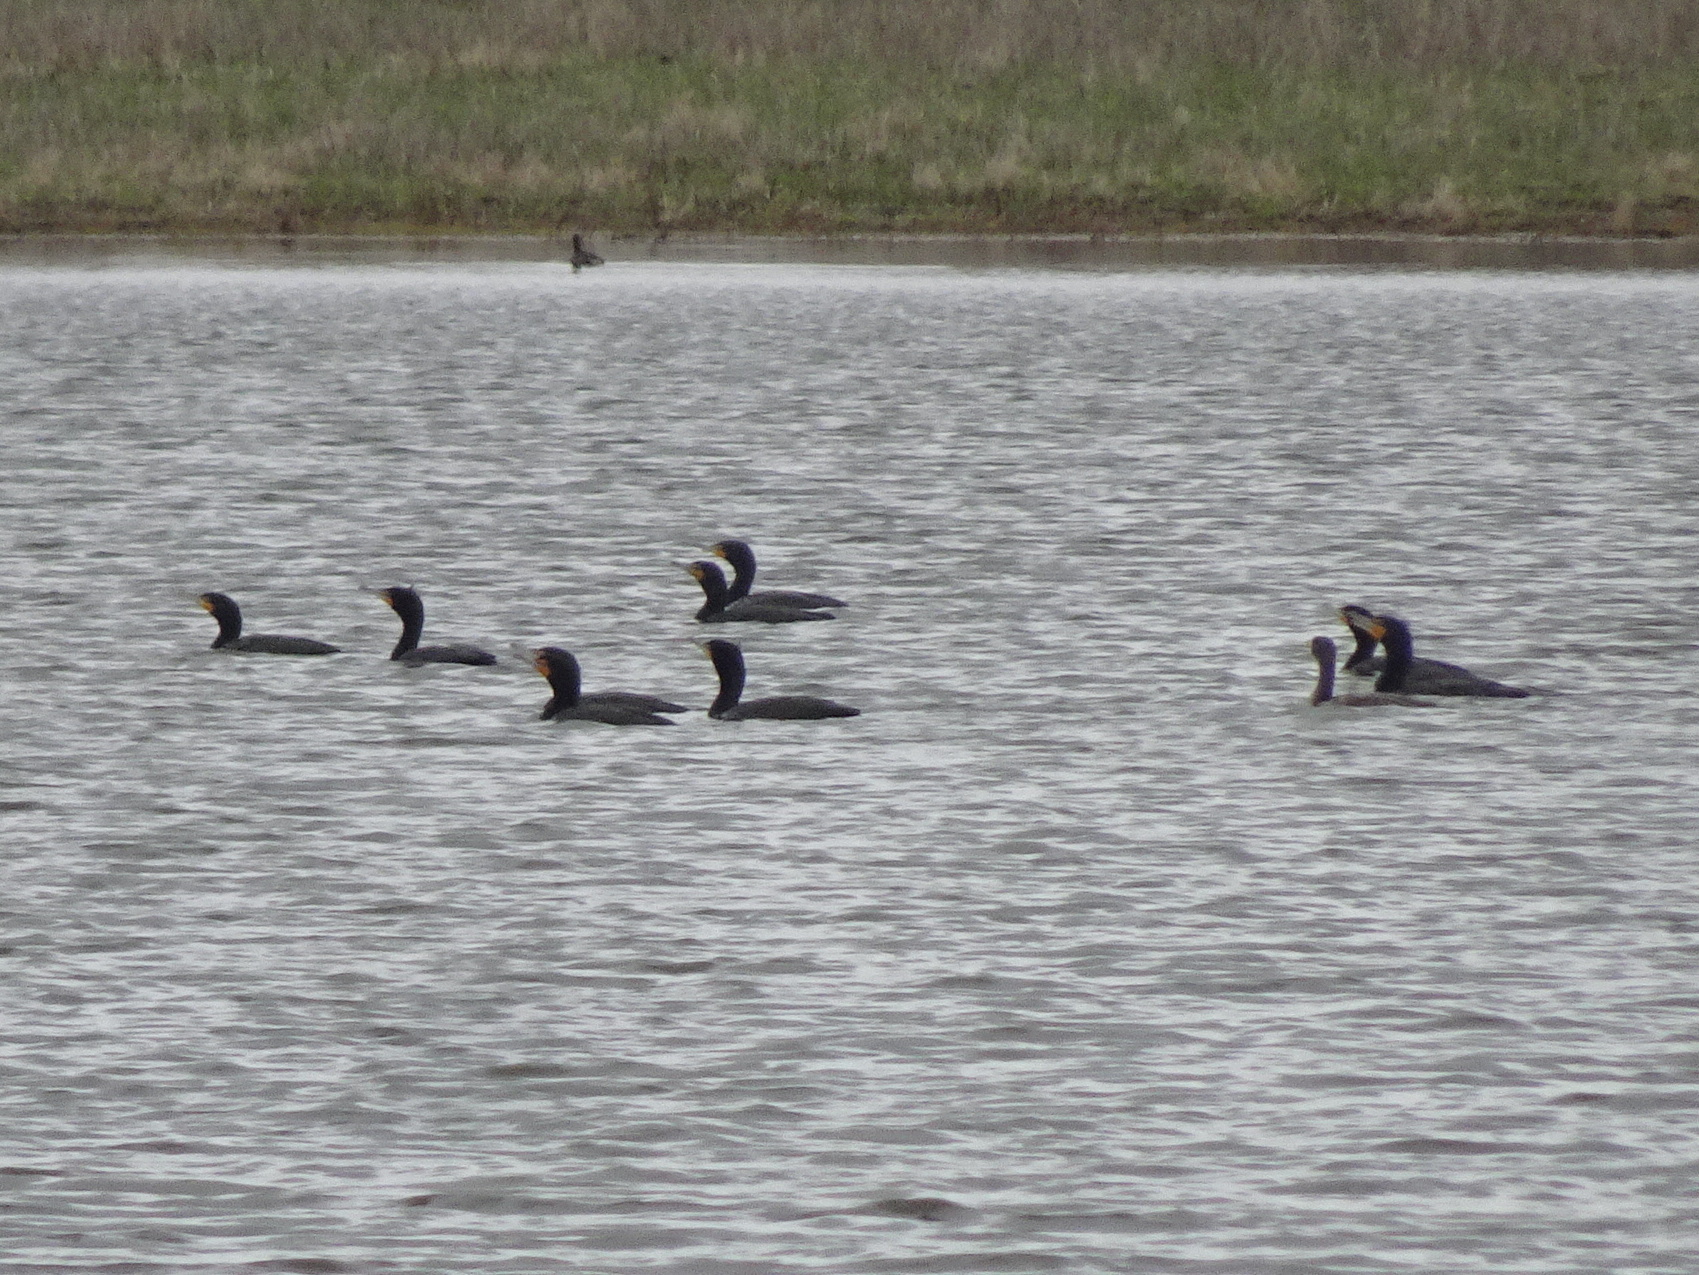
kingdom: Animalia
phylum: Chordata
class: Aves
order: Suliformes
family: Phalacrocoracidae
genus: Phalacrocorax
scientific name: Phalacrocorax auritus
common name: Double-crested cormorant
